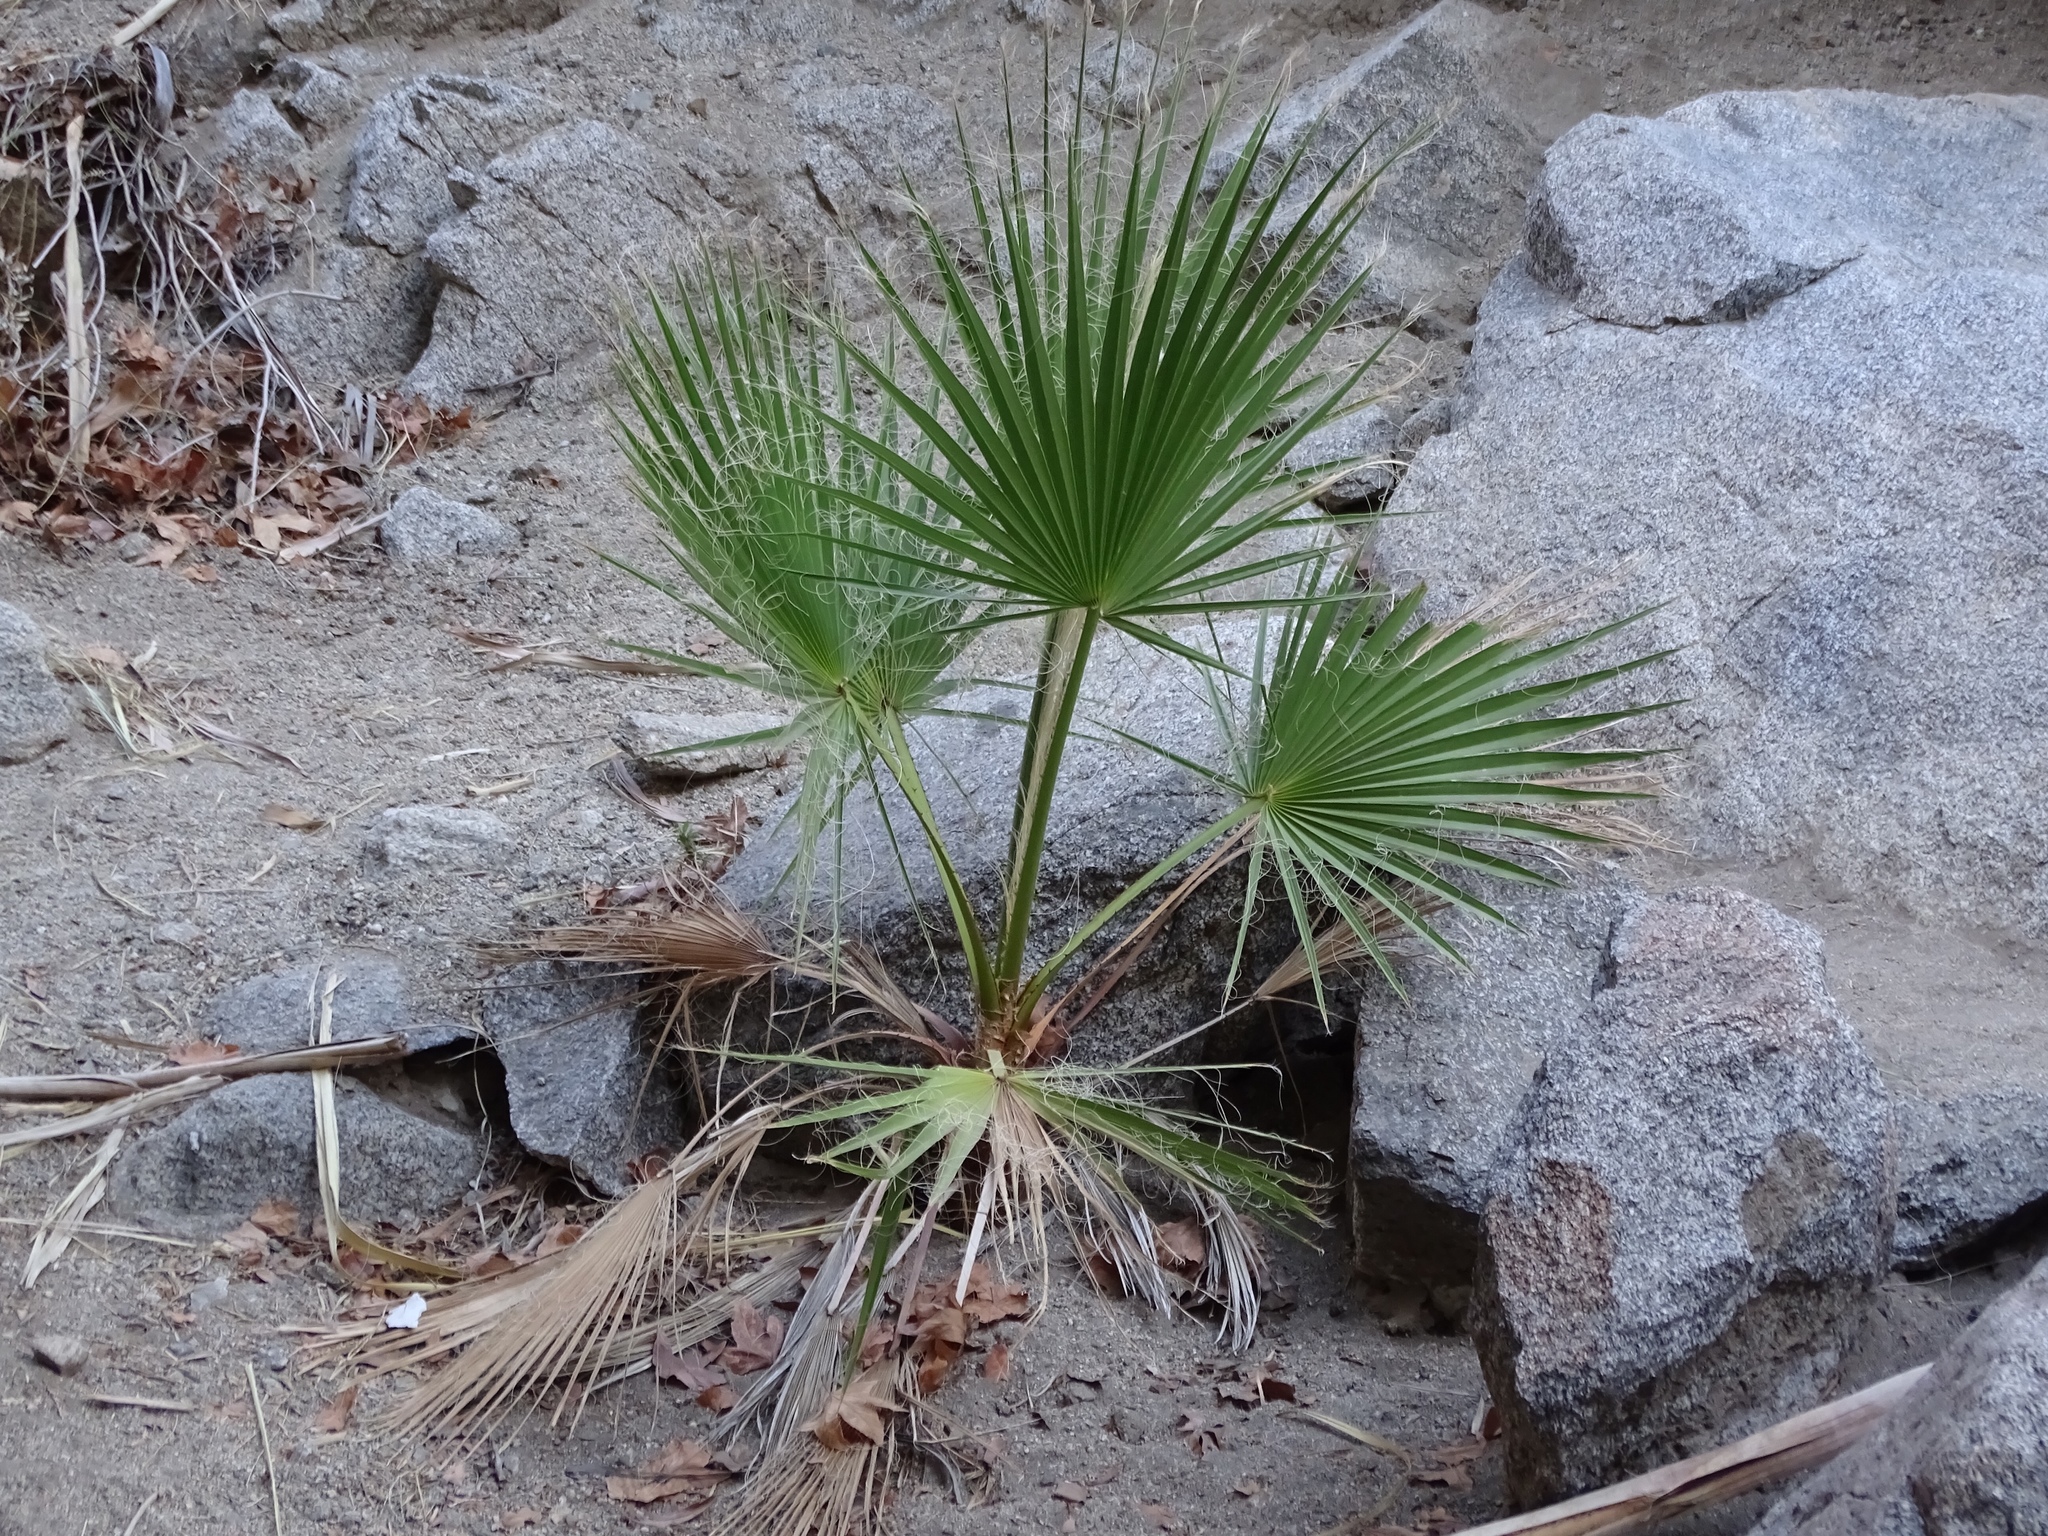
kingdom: Plantae
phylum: Tracheophyta
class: Liliopsida
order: Arecales
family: Arecaceae
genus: Washingtonia
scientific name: Washingtonia filifera
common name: California fan palm
